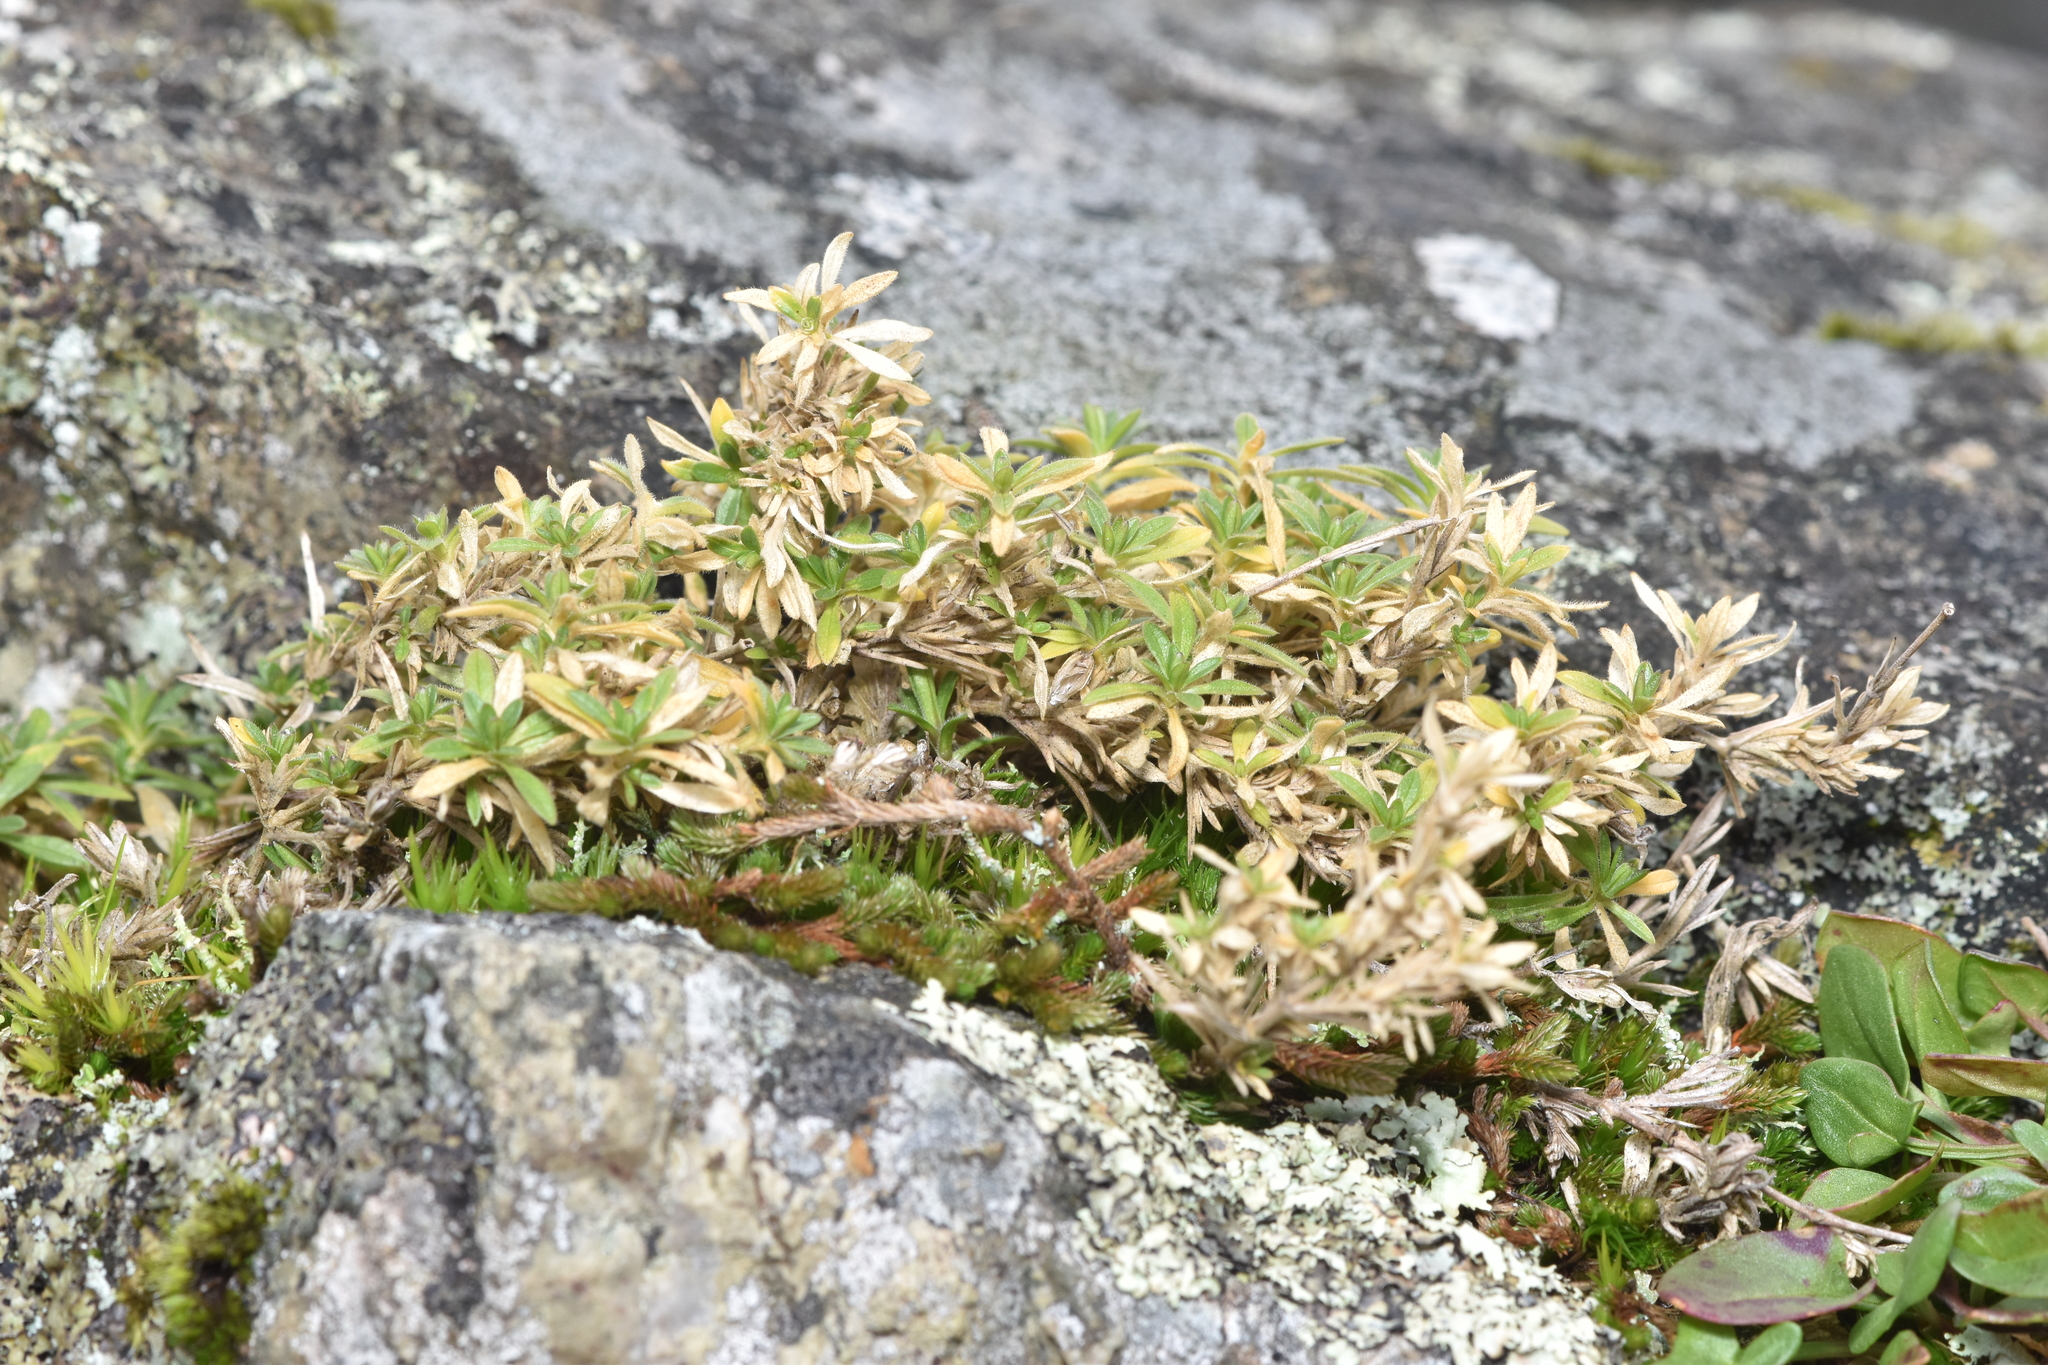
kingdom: Plantae
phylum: Tracheophyta
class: Magnoliopsida
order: Caryophyllales
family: Caryophyllaceae
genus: Cerastium
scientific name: Cerastium arvense
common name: Field mouse-ear
